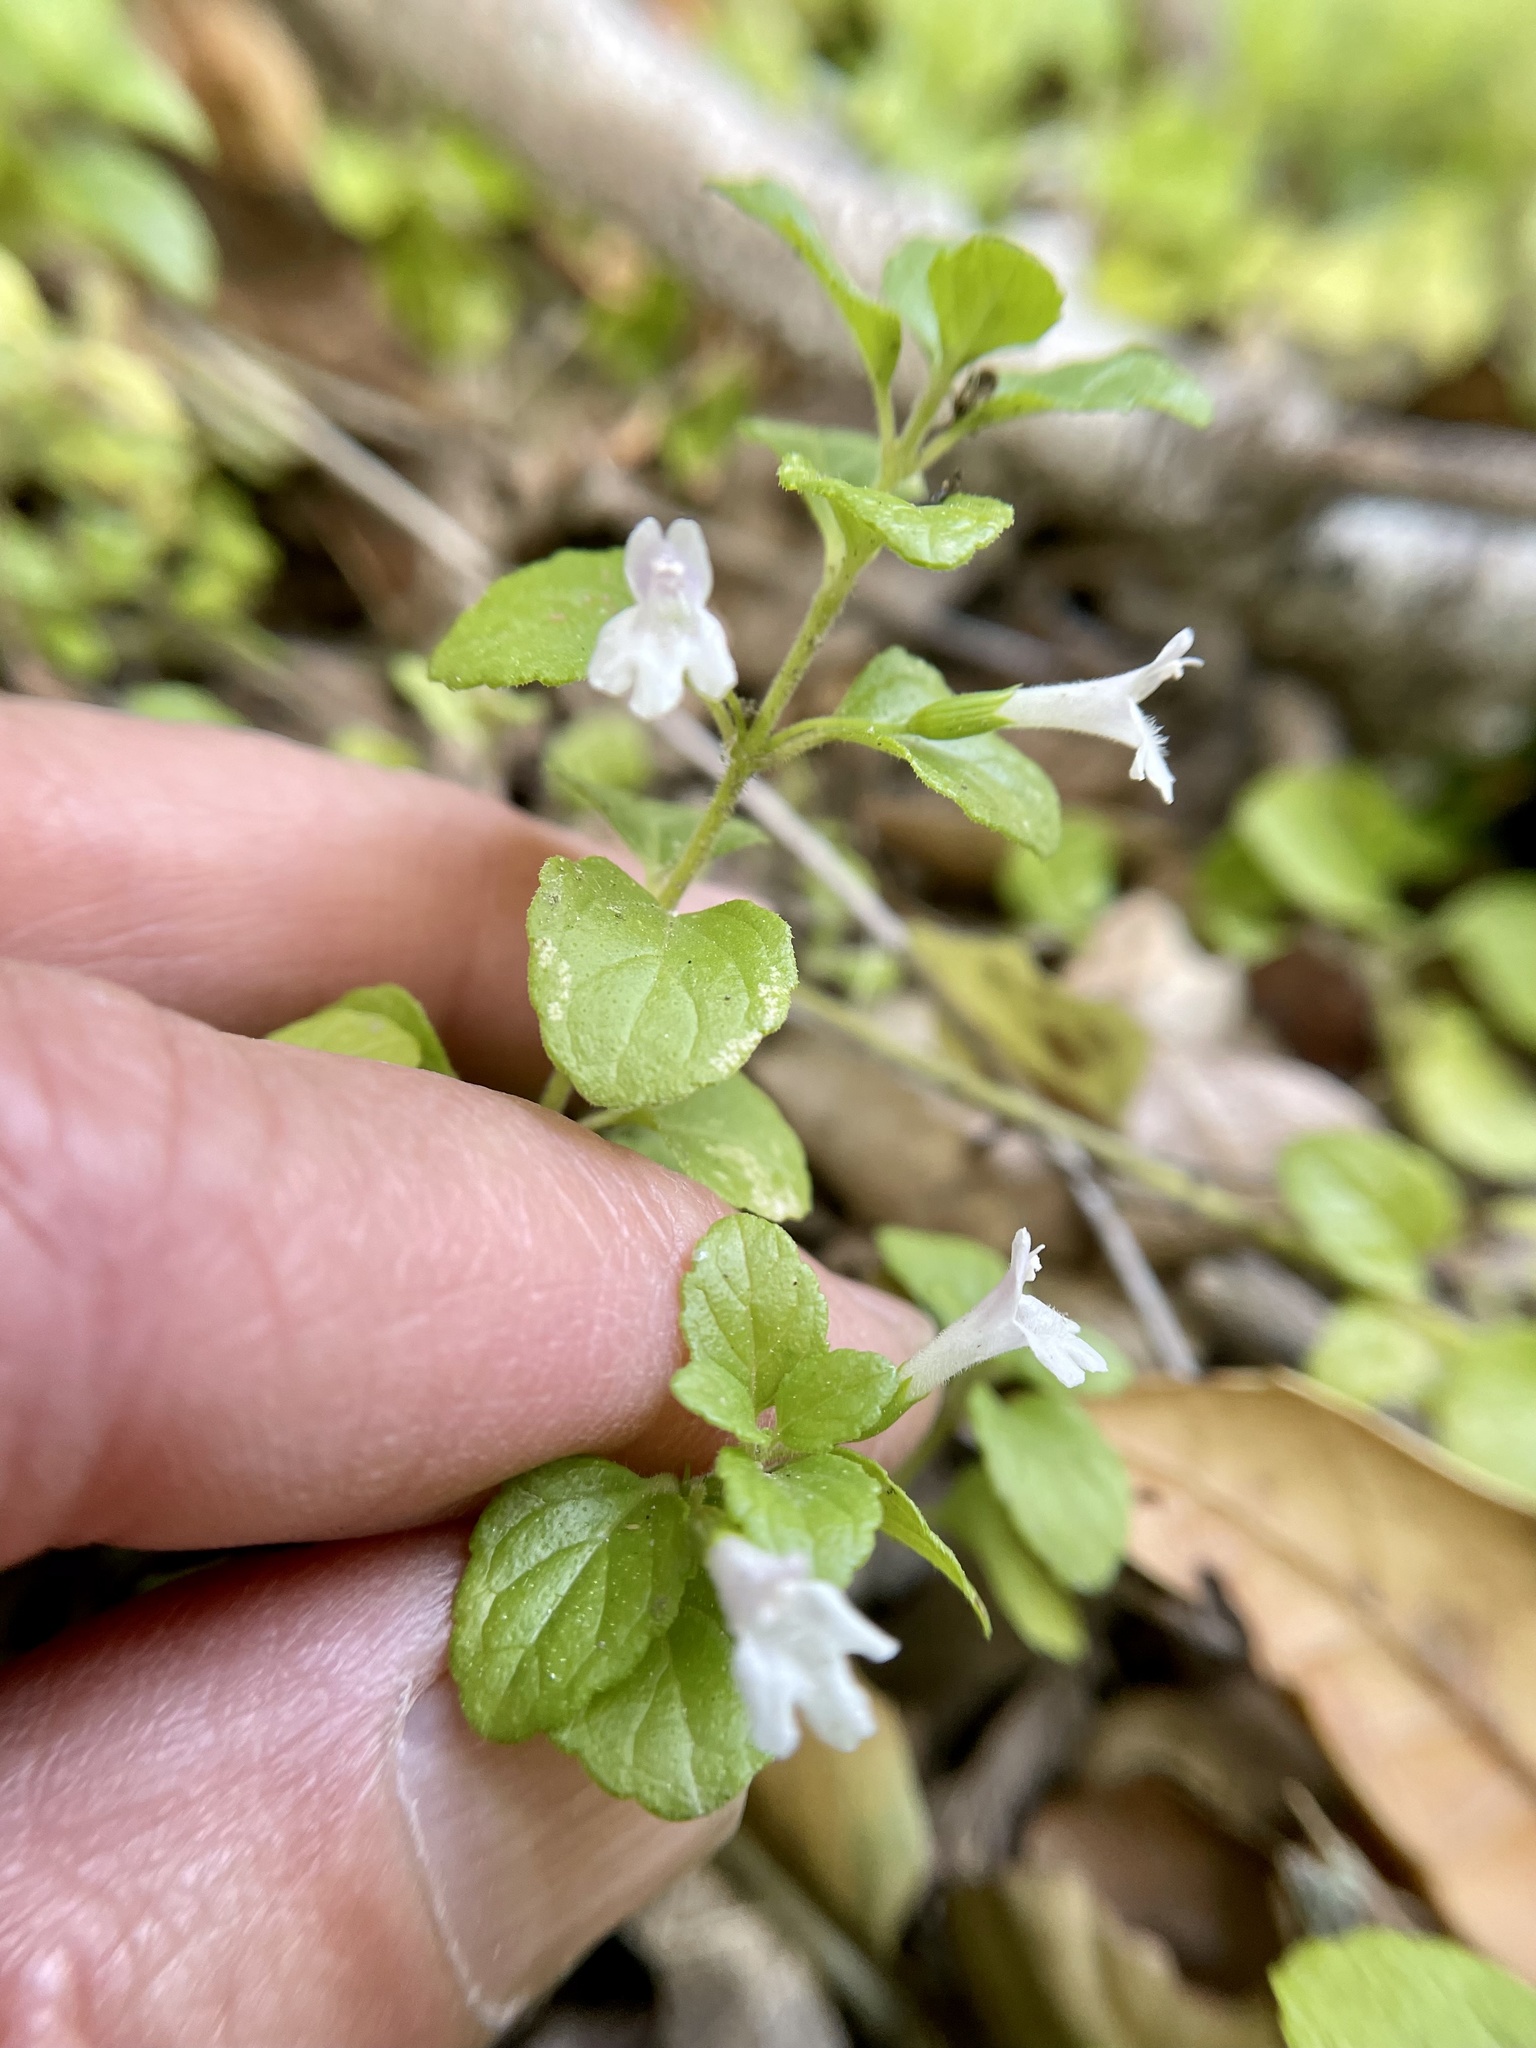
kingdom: Plantae
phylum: Tracheophyta
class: Magnoliopsida
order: Lamiales
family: Lamiaceae
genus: Micromeria
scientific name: Micromeria douglasii
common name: Yerba buena
